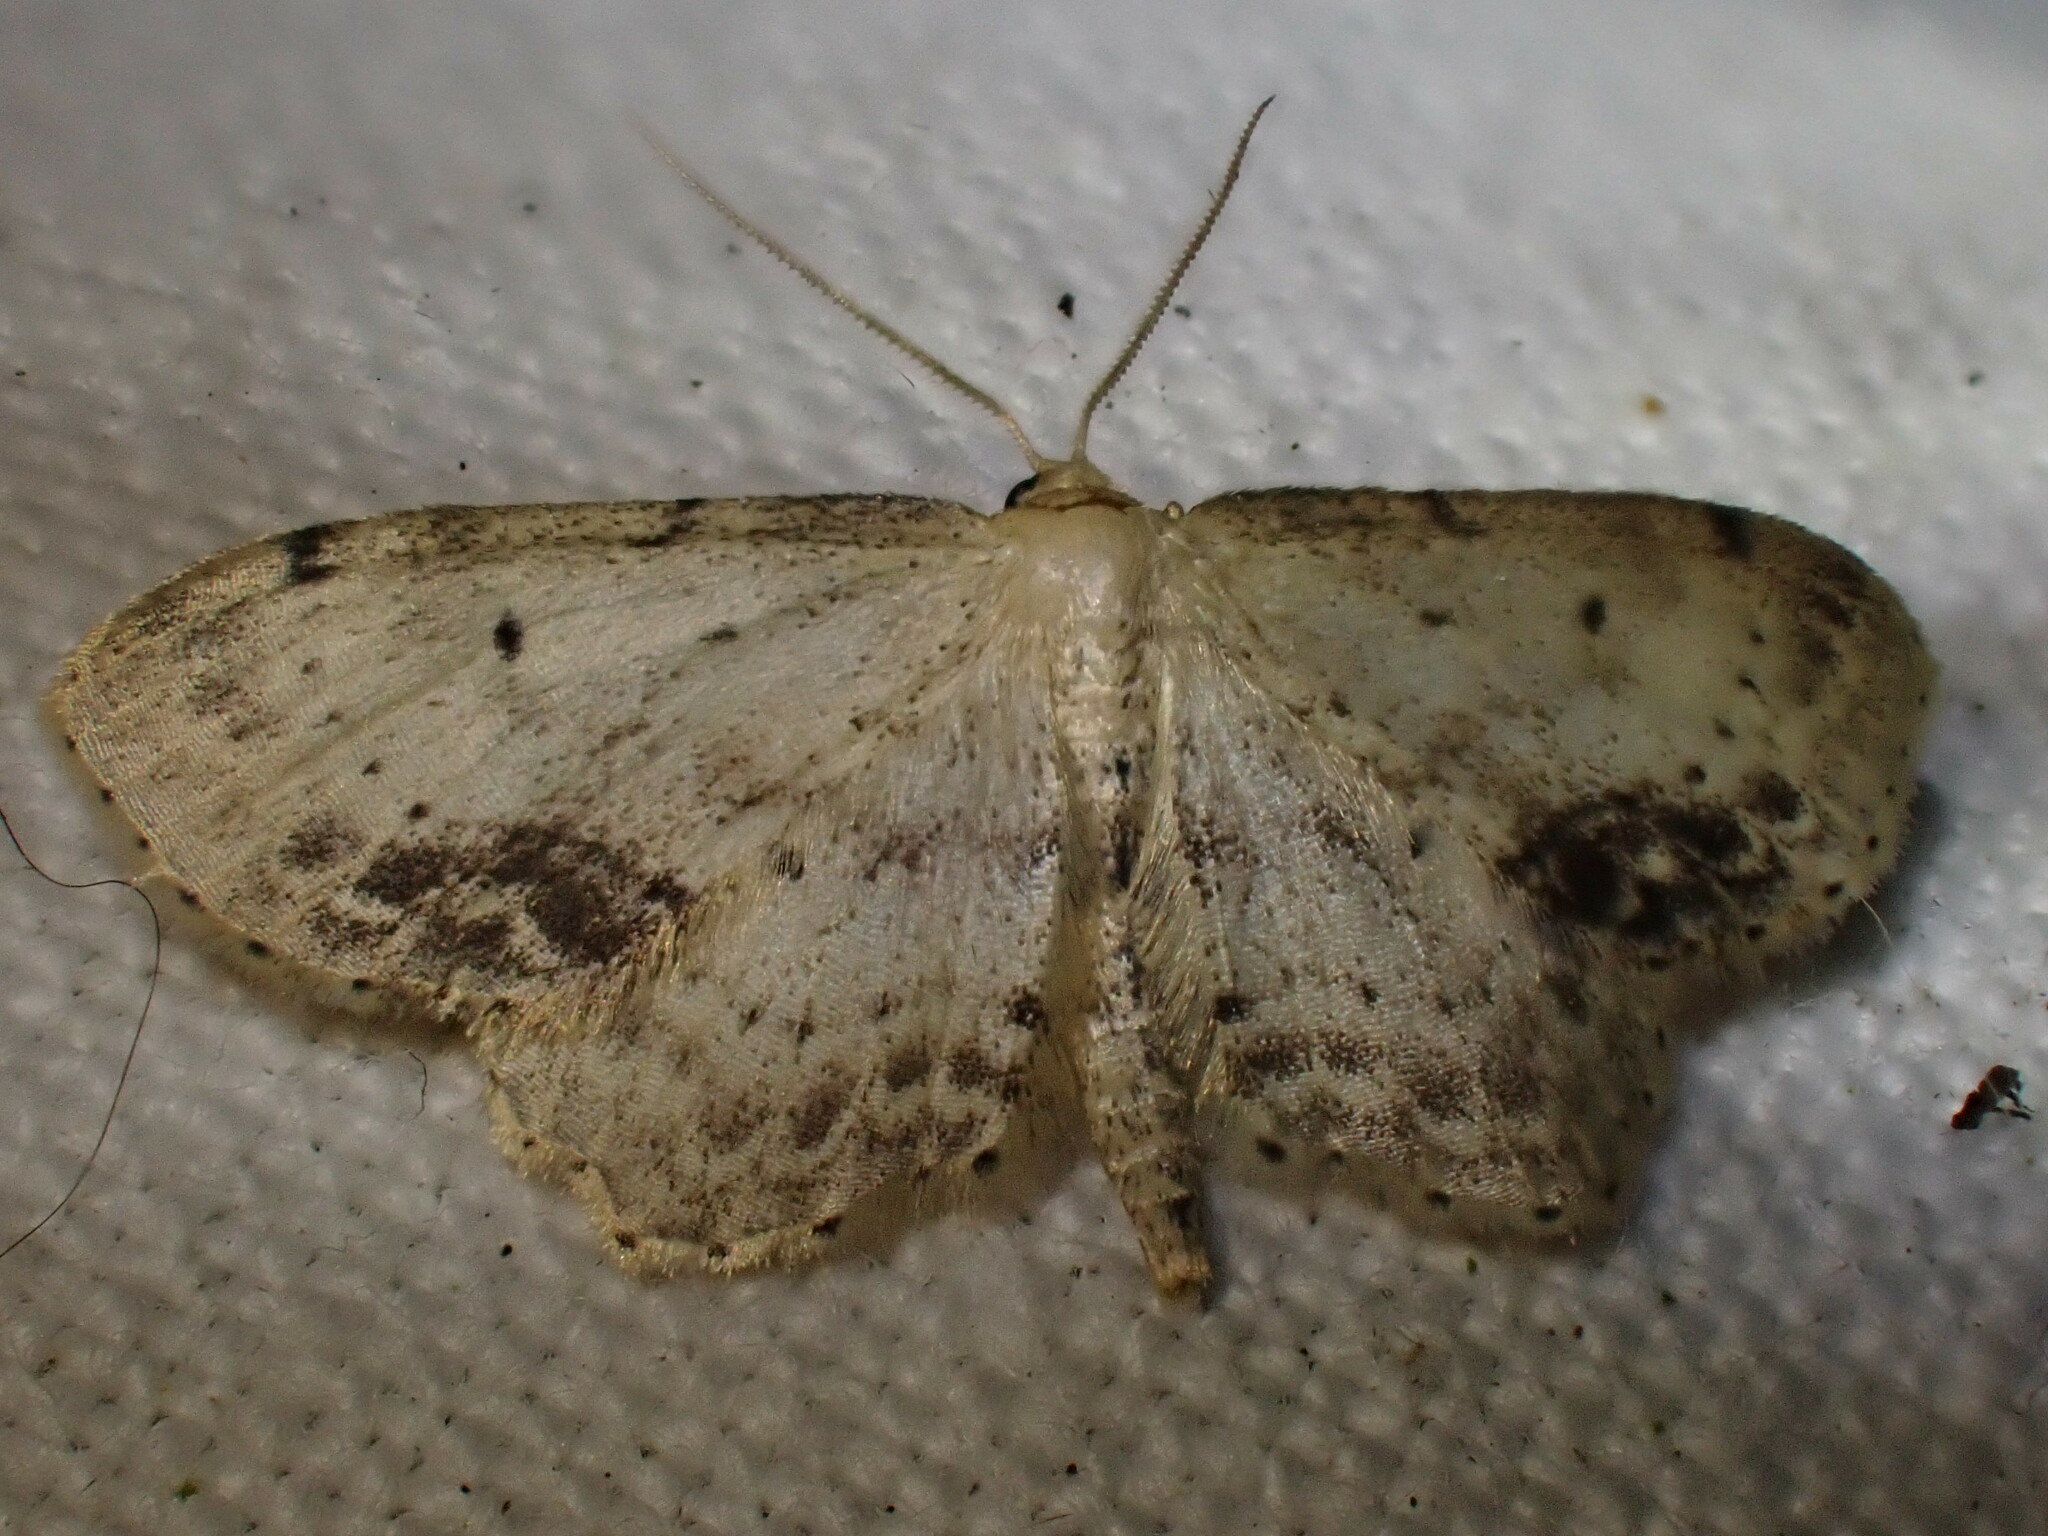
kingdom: Animalia
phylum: Arthropoda
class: Insecta
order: Lepidoptera
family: Geometridae
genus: Idaea
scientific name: Idaea dimidiata
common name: Single-dotted wave
